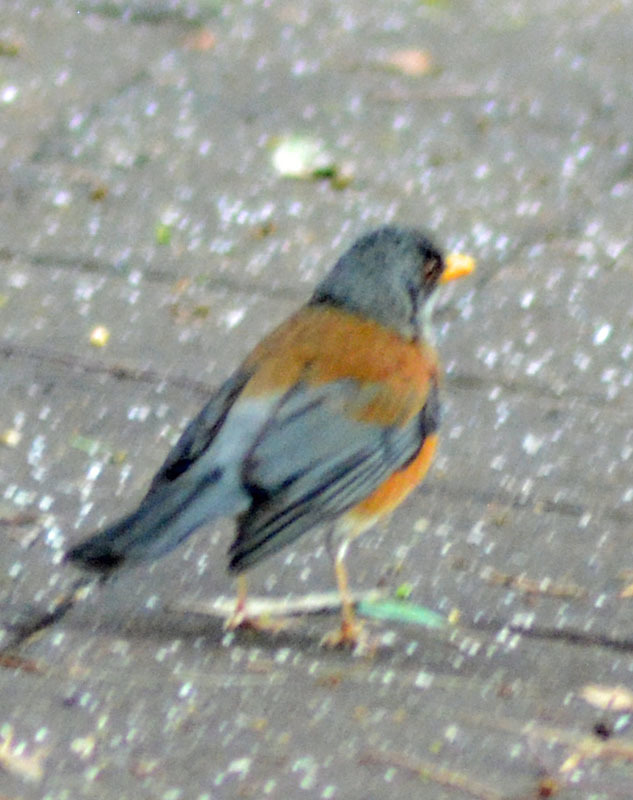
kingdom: Animalia
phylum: Chordata
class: Aves
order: Passeriformes
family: Turdidae
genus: Turdus
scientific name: Turdus rufopalliatus
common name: Rufous-backed robin
